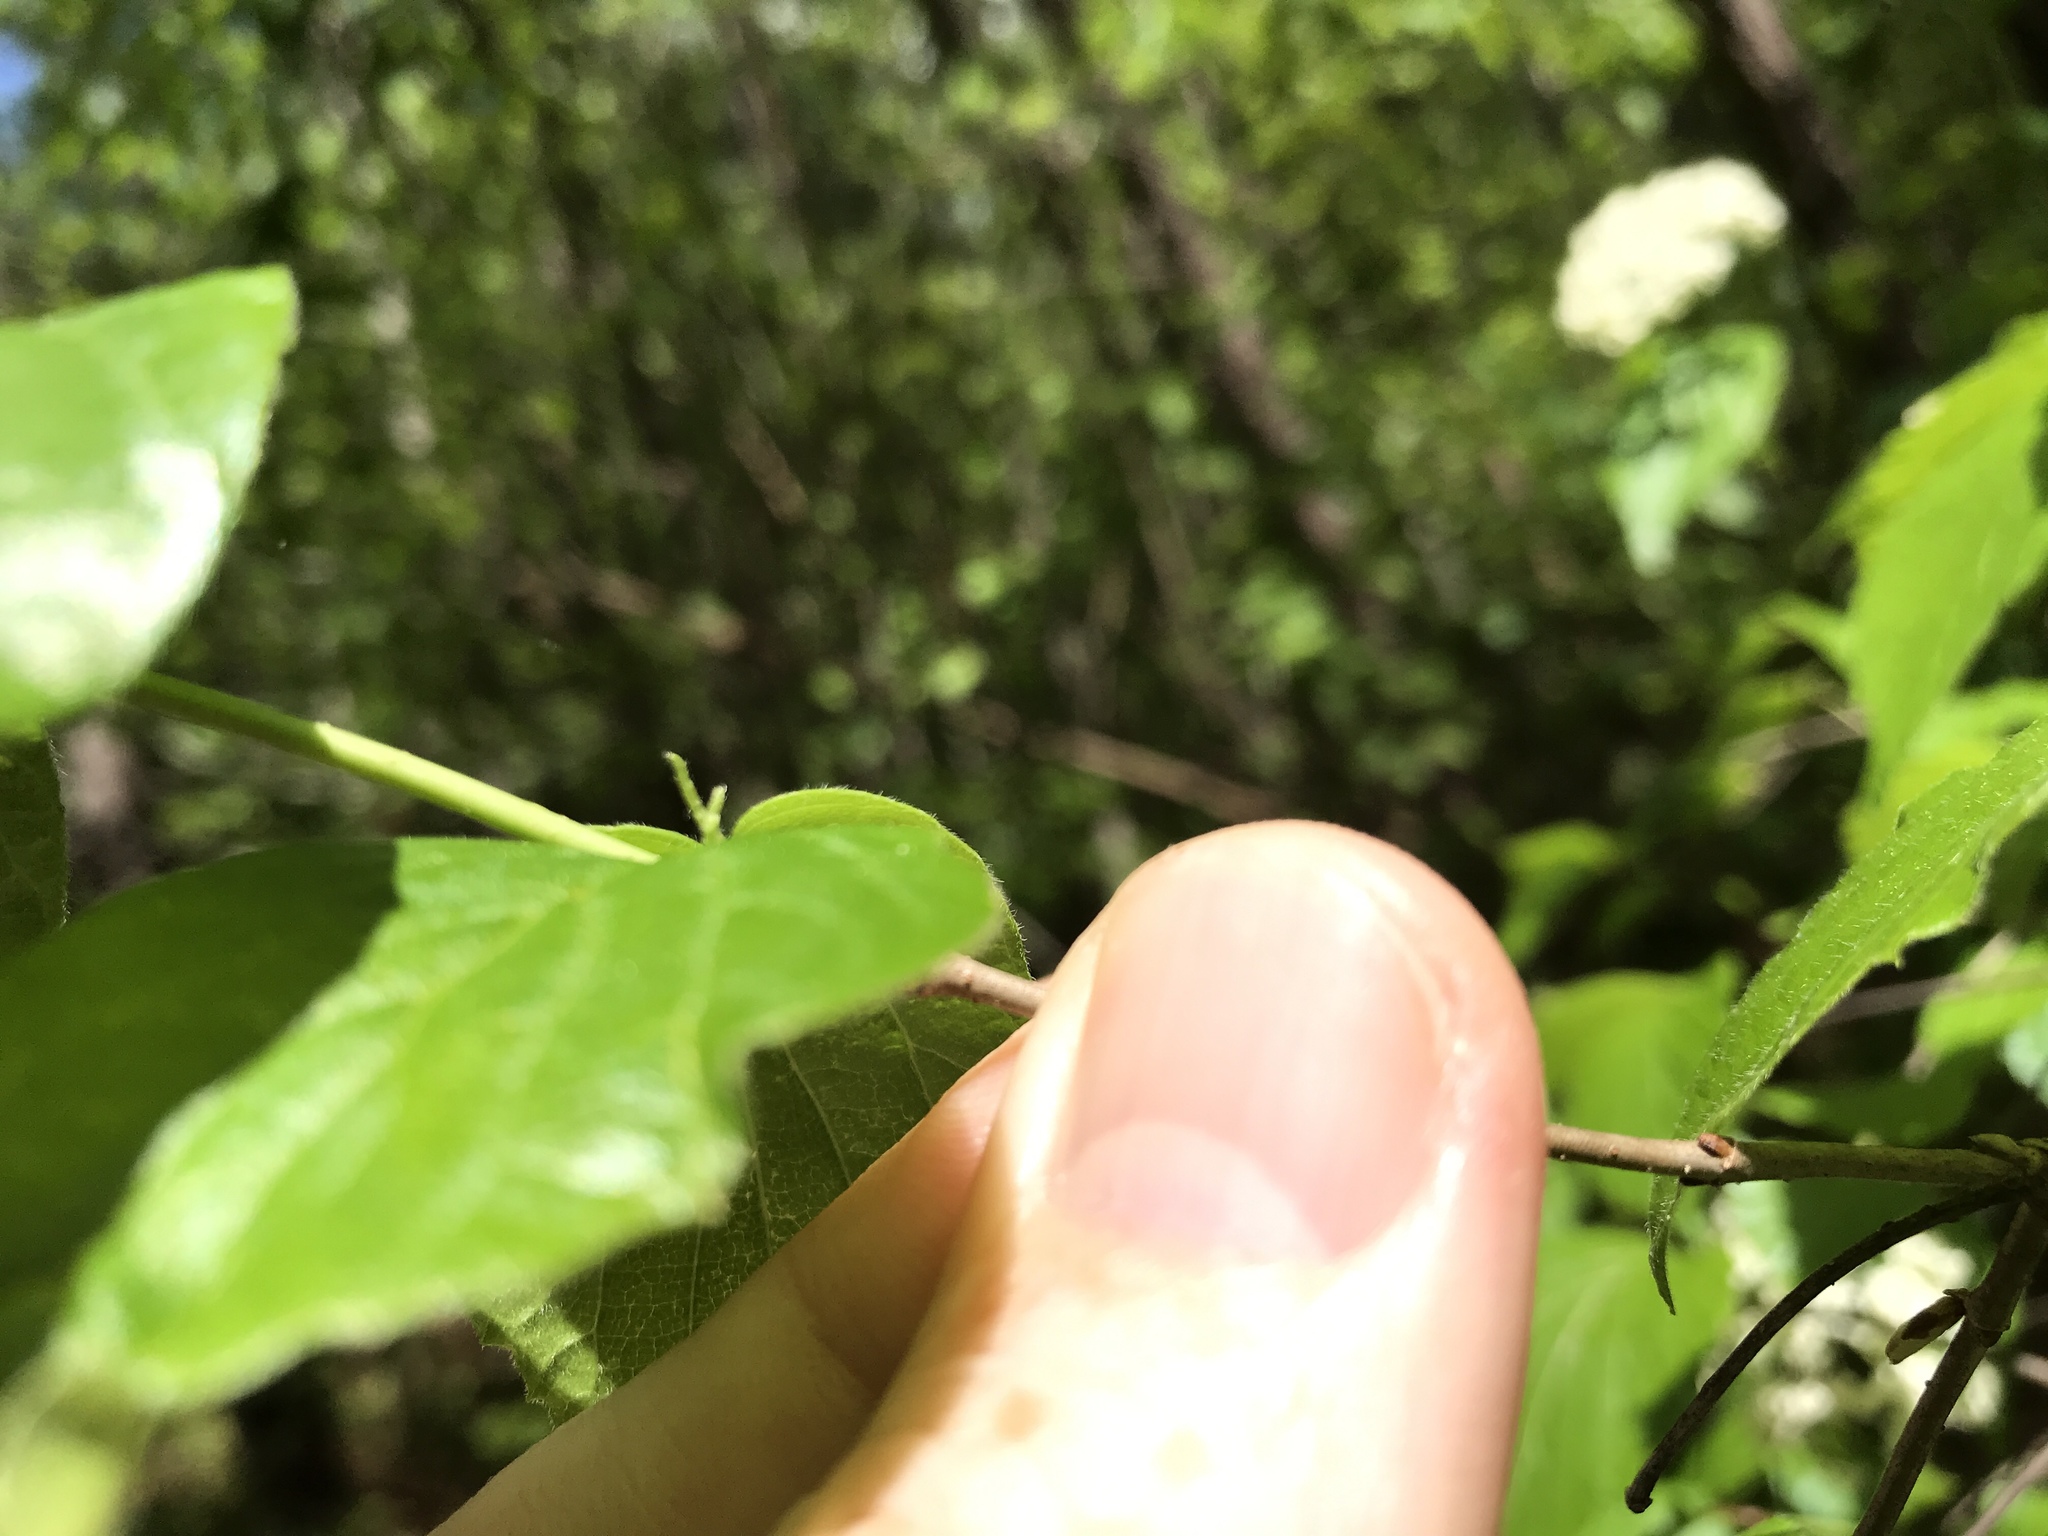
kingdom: Plantae
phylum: Tracheophyta
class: Magnoliopsida
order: Dipsacales
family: Viburnaceae
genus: Viburnum
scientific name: Viburnum rafinesqueanum
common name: Downy arrow-wood
